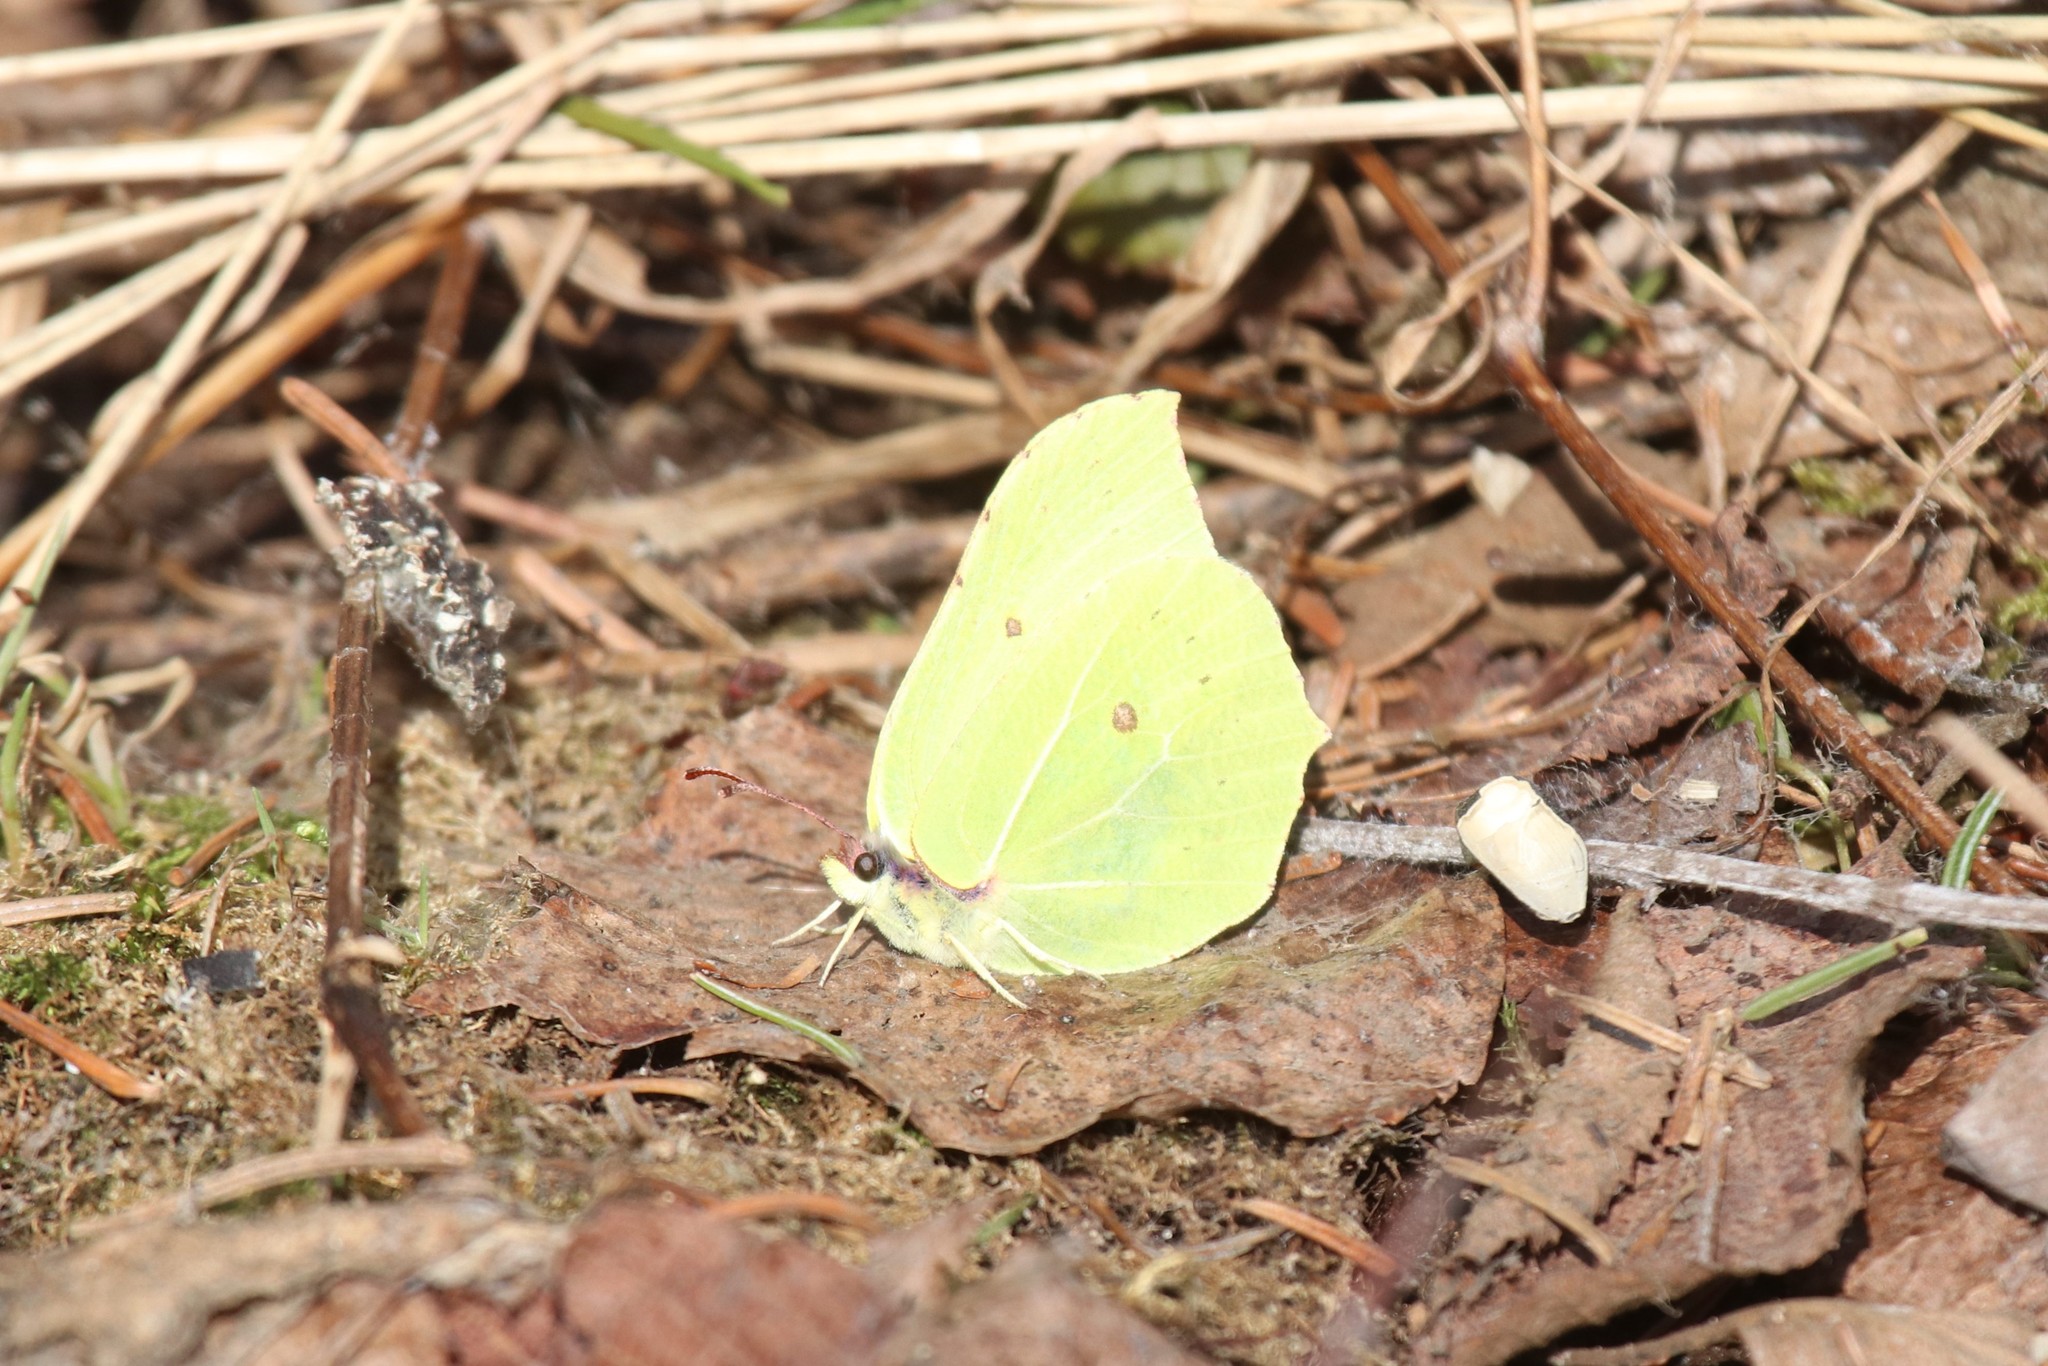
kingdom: Animalia
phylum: Arthropoda
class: Insecta
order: Lepidoptera
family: Pieridae
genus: Gonepteryx
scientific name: Gonepteryx rhamni
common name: Brimstone
